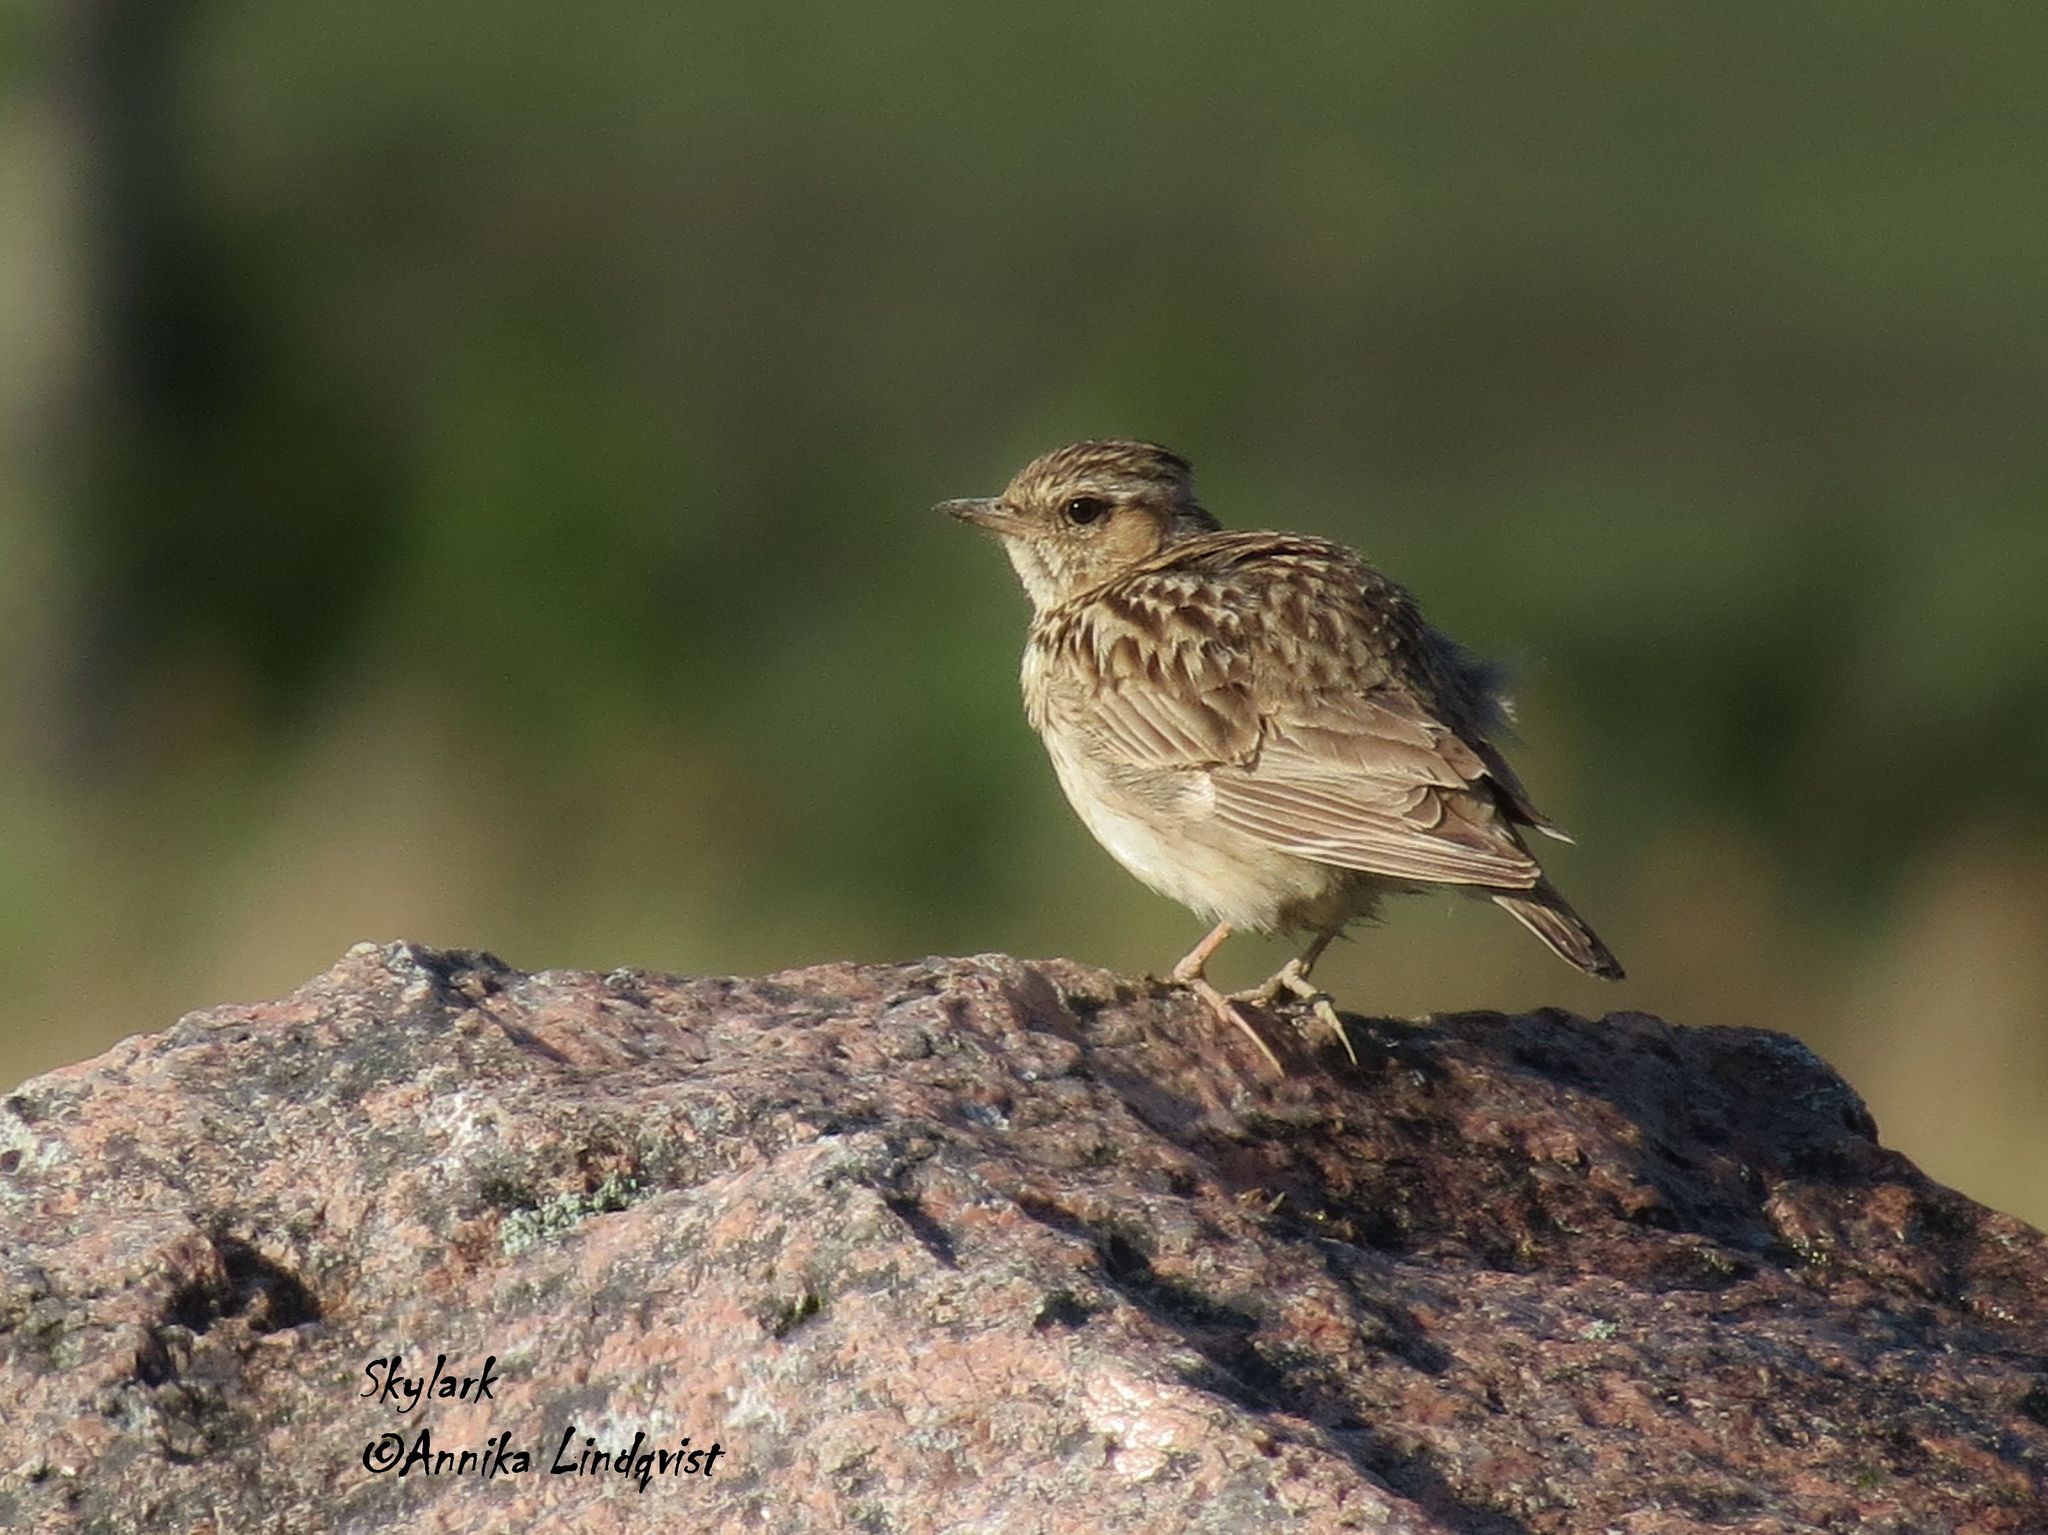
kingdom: Animalia
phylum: Chordata
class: Aves
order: Passeriformes
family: Alaudidae
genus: Alauda
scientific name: Alauda arvensis
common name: Eurasian skylark
